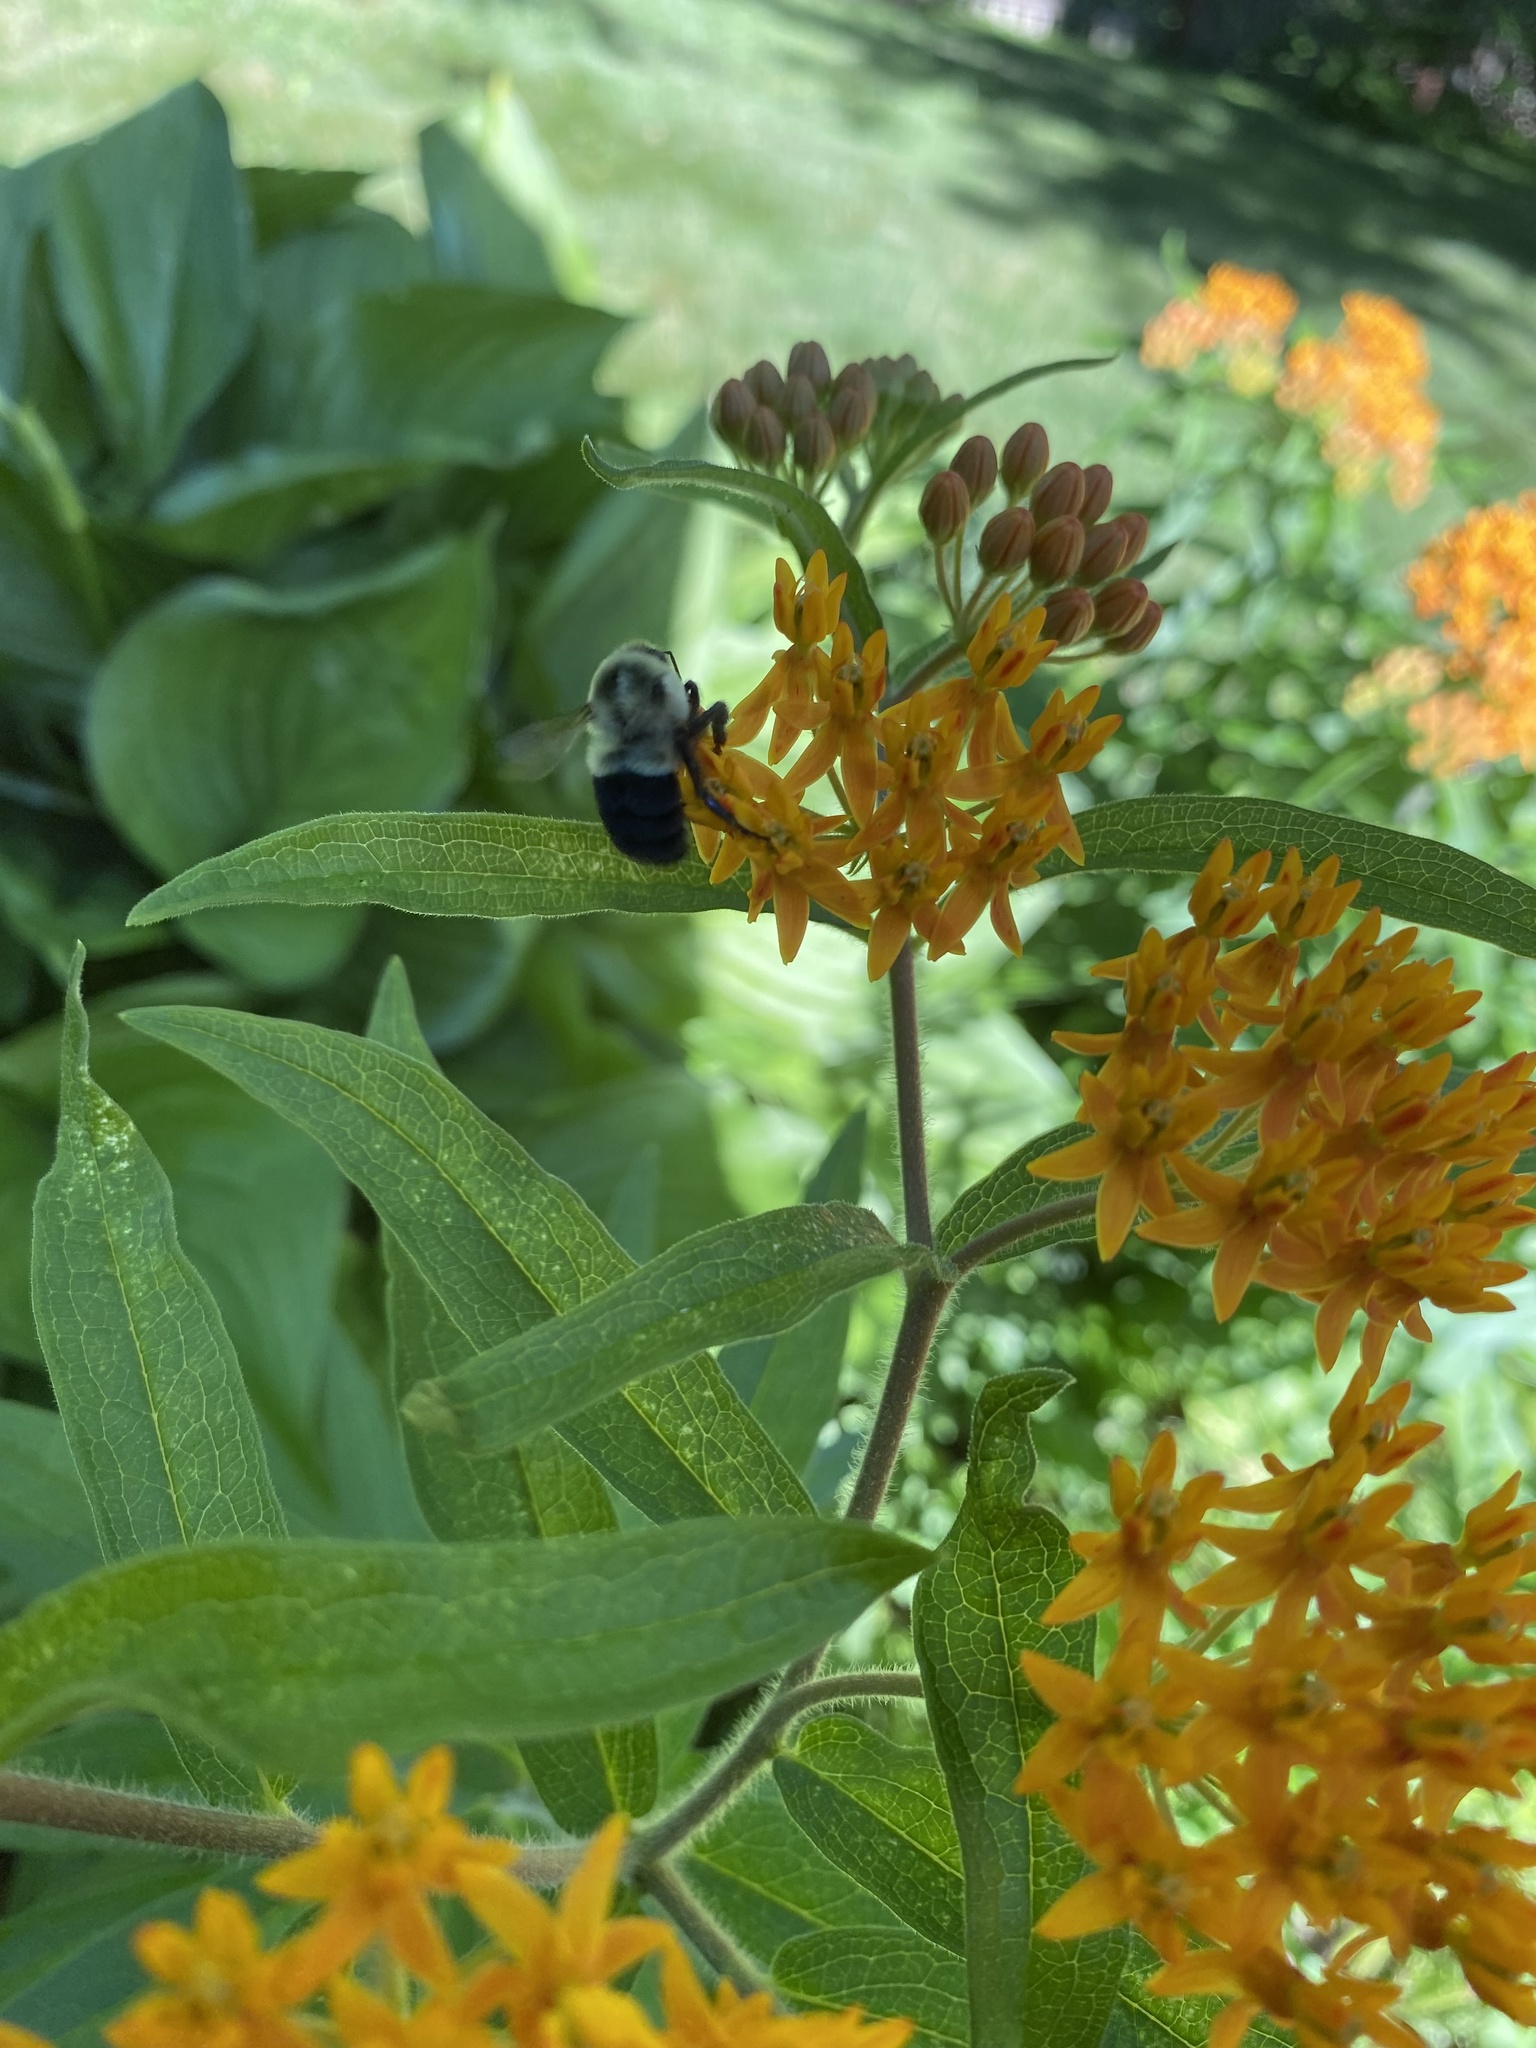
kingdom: Animalia
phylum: Arthropoda
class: Insecta
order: Hymenoptera
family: Apidae
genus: Bombus
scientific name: Bombus impatiens
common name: Common eastern bumble bee
